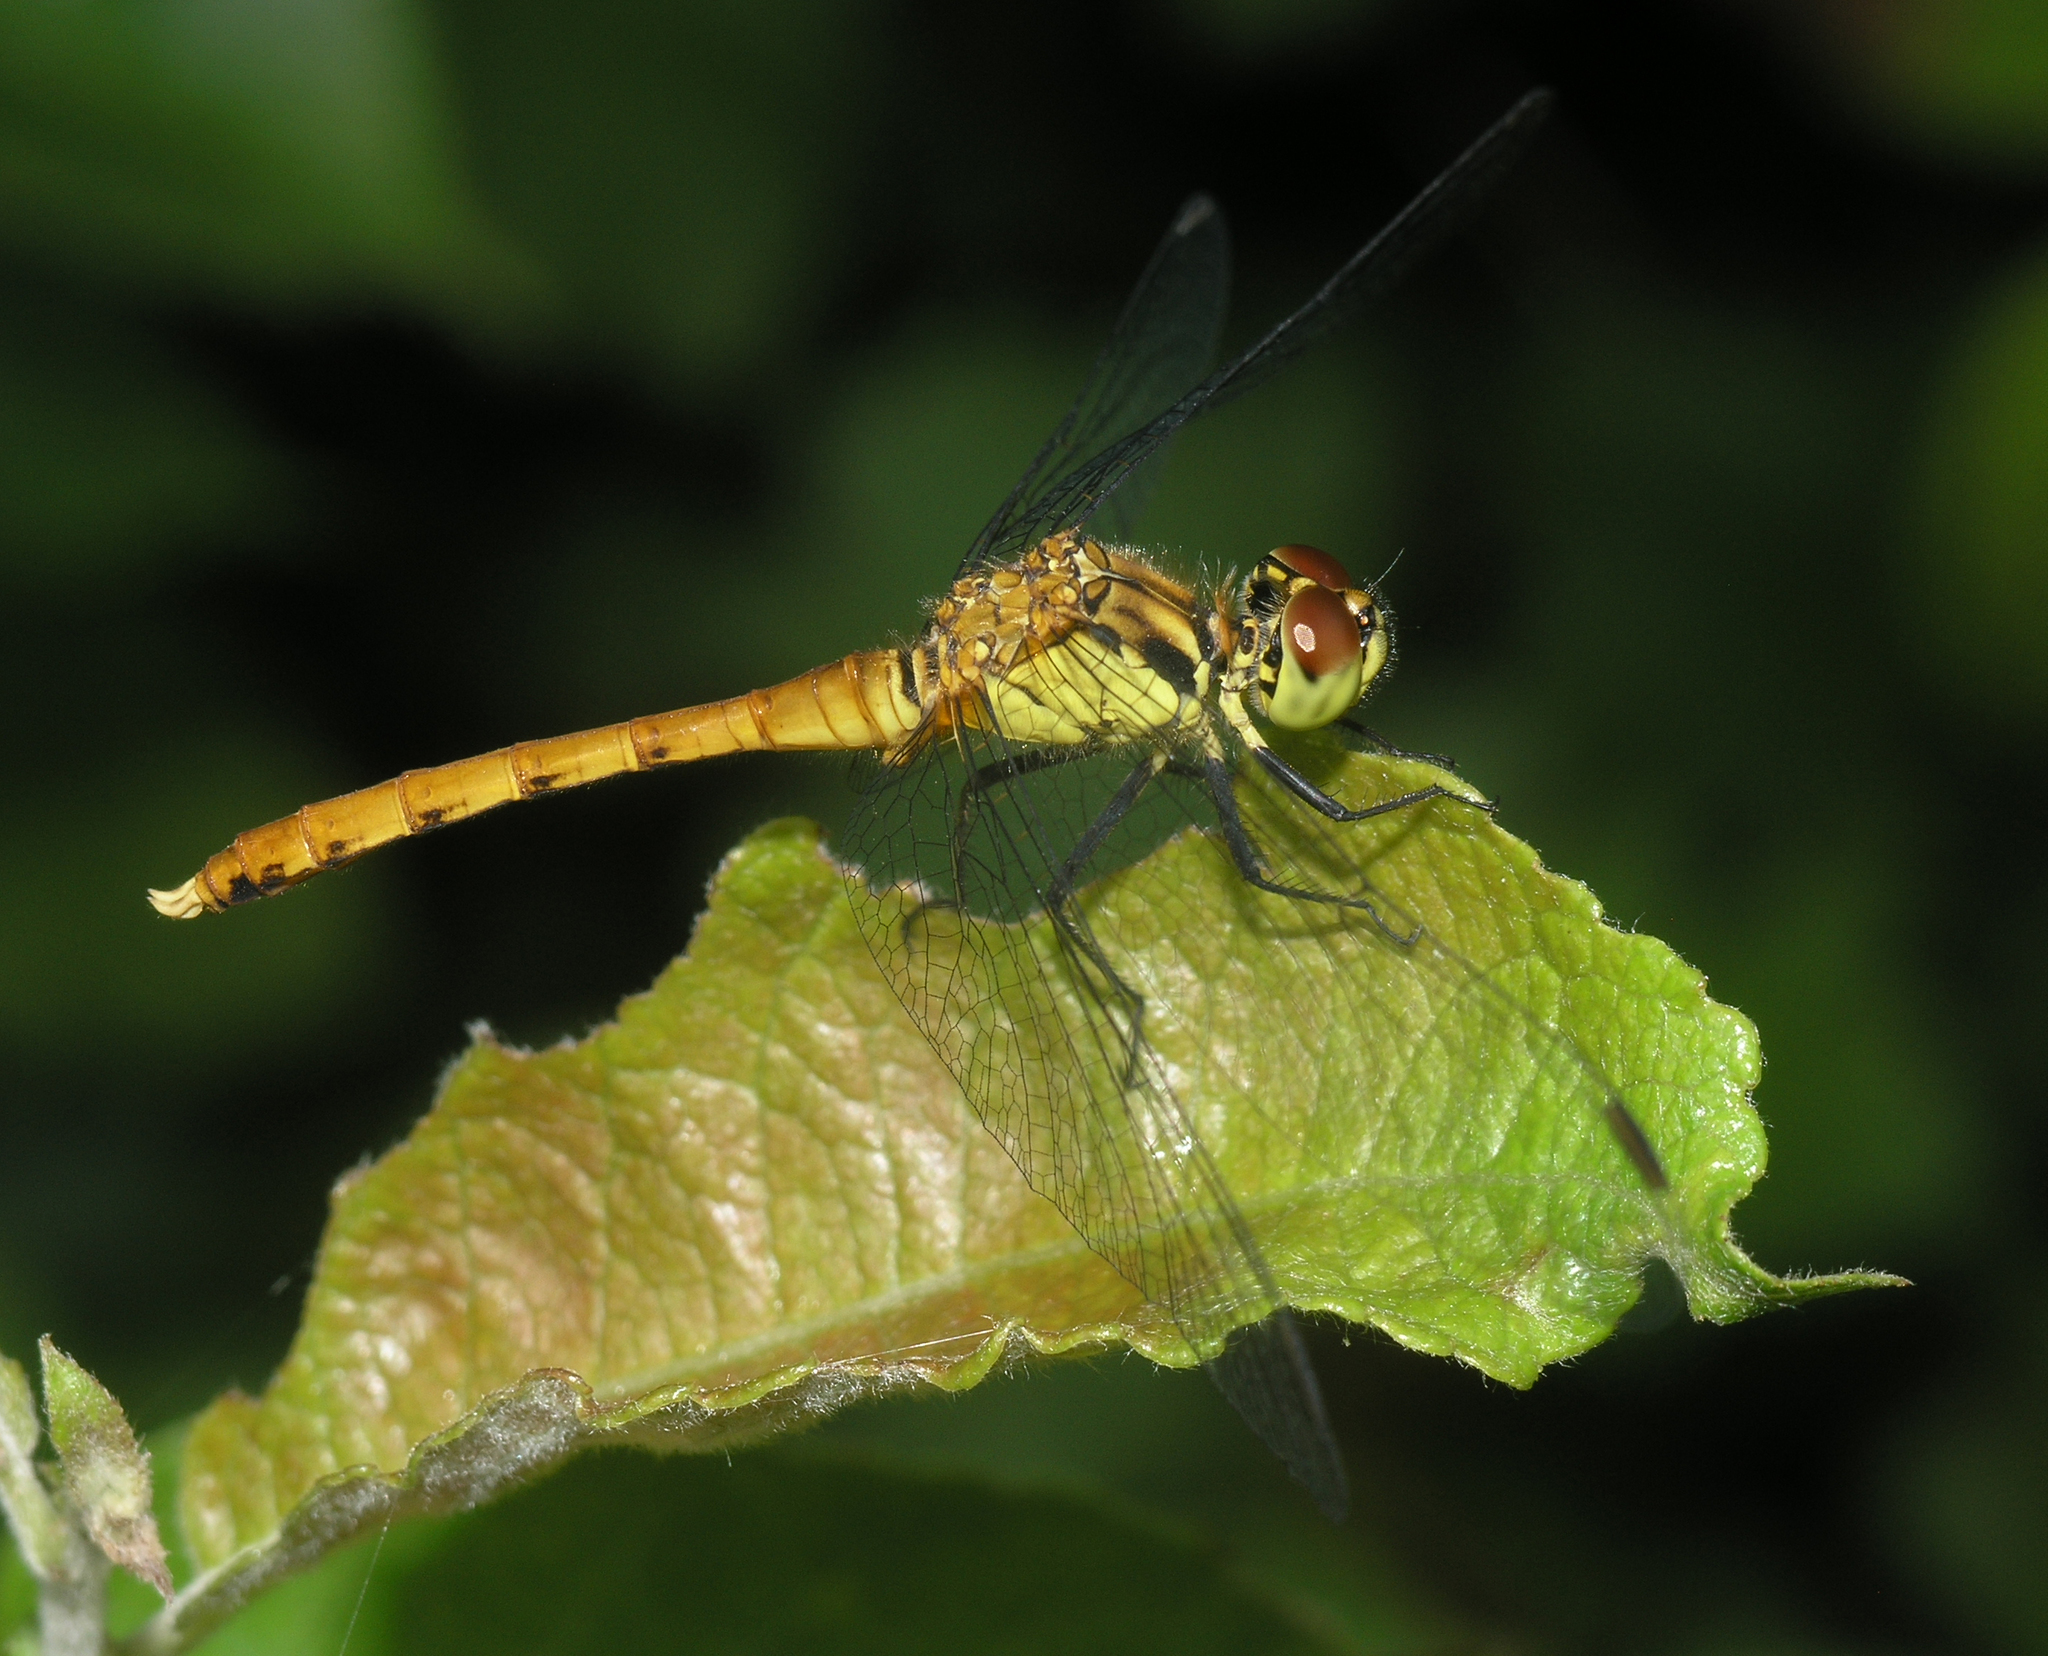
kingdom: Animalia
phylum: Arthropoda
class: Insecta
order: Odonata
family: Libellulidae
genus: Sympetrum
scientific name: Sympetrum eroticum
